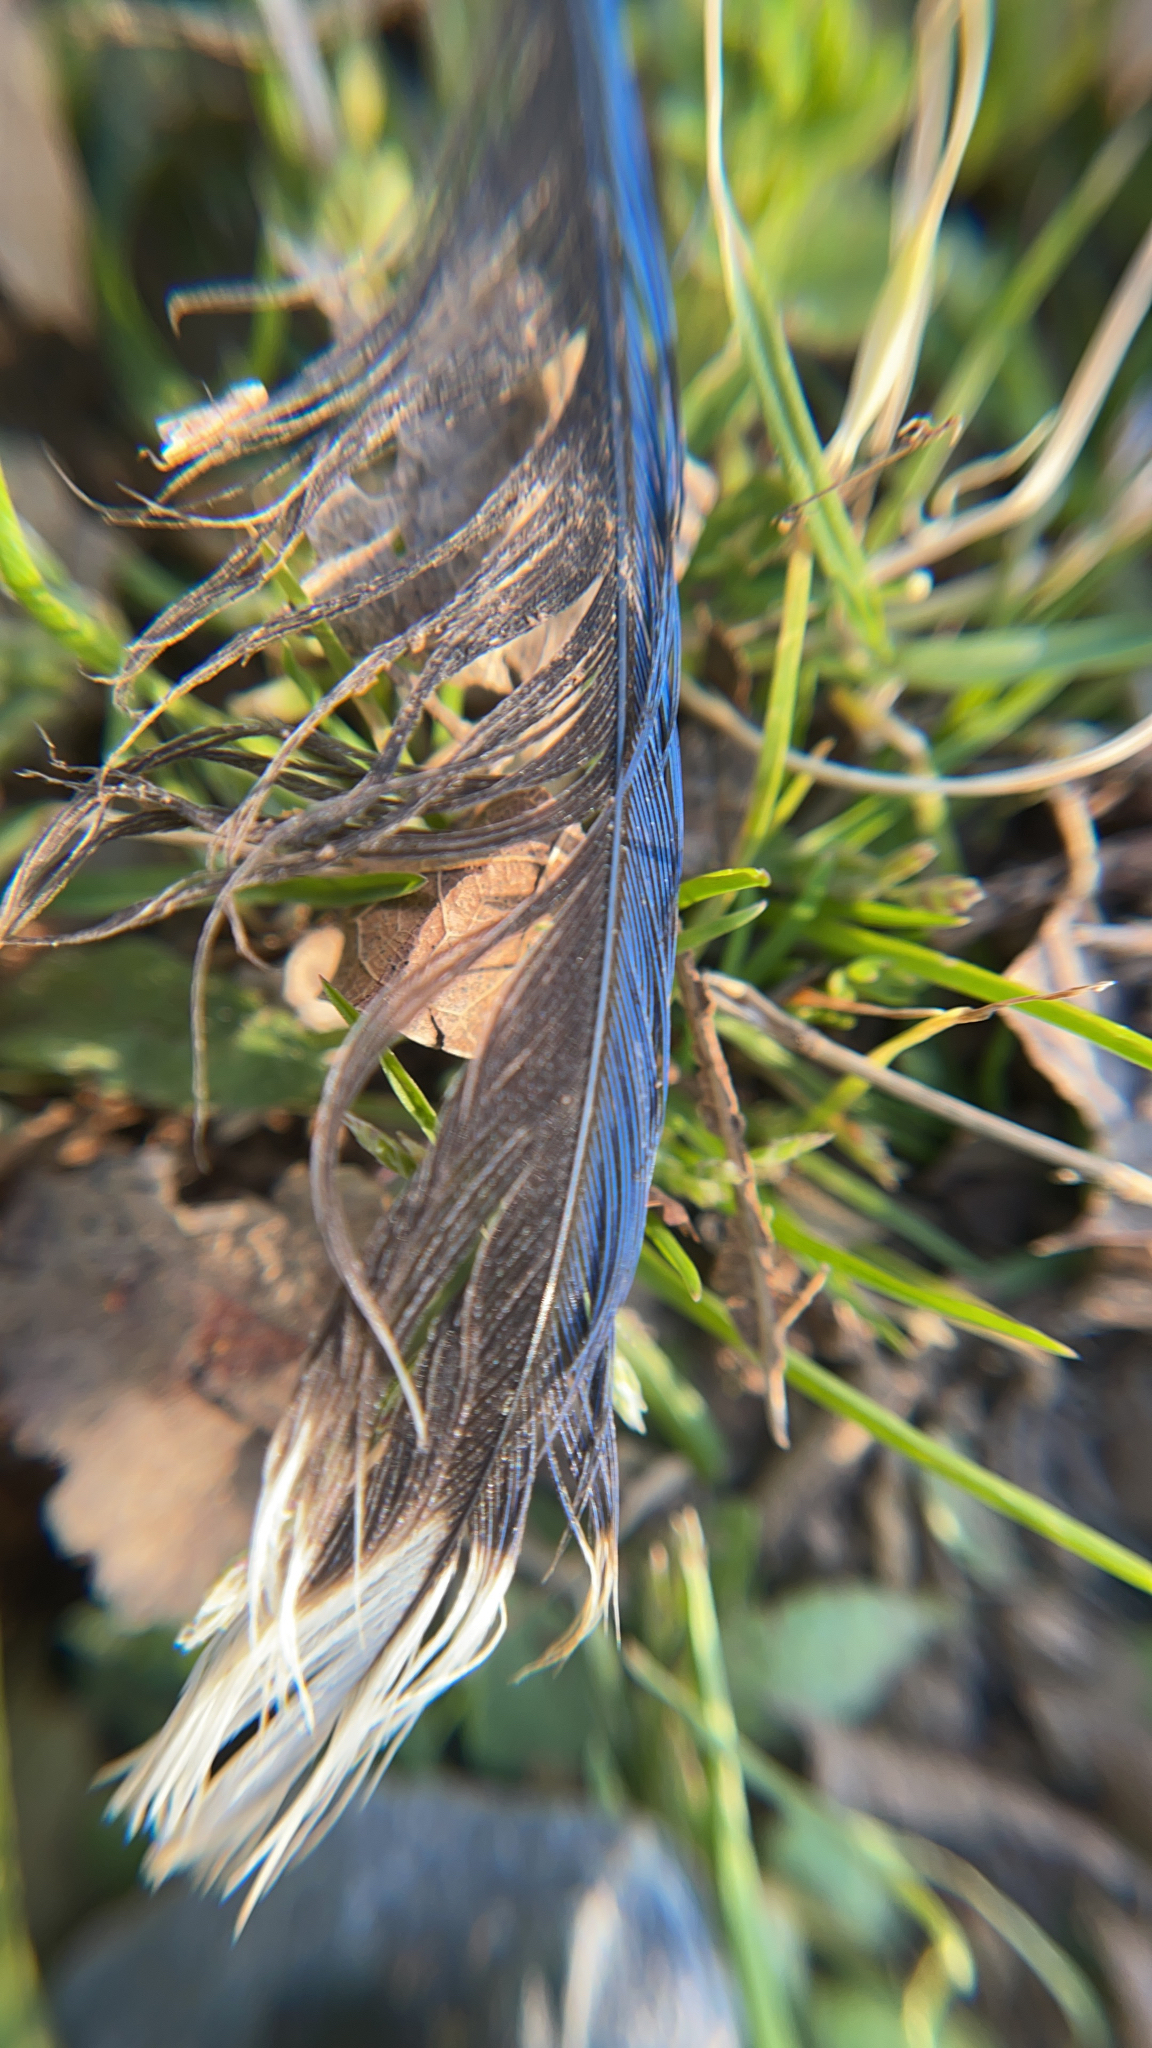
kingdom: Animalia
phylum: Chordata
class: Aves
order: Passeriformes
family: Corvidae
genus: Cyanocitta
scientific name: Cyanocitta cristata
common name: Blue jay
